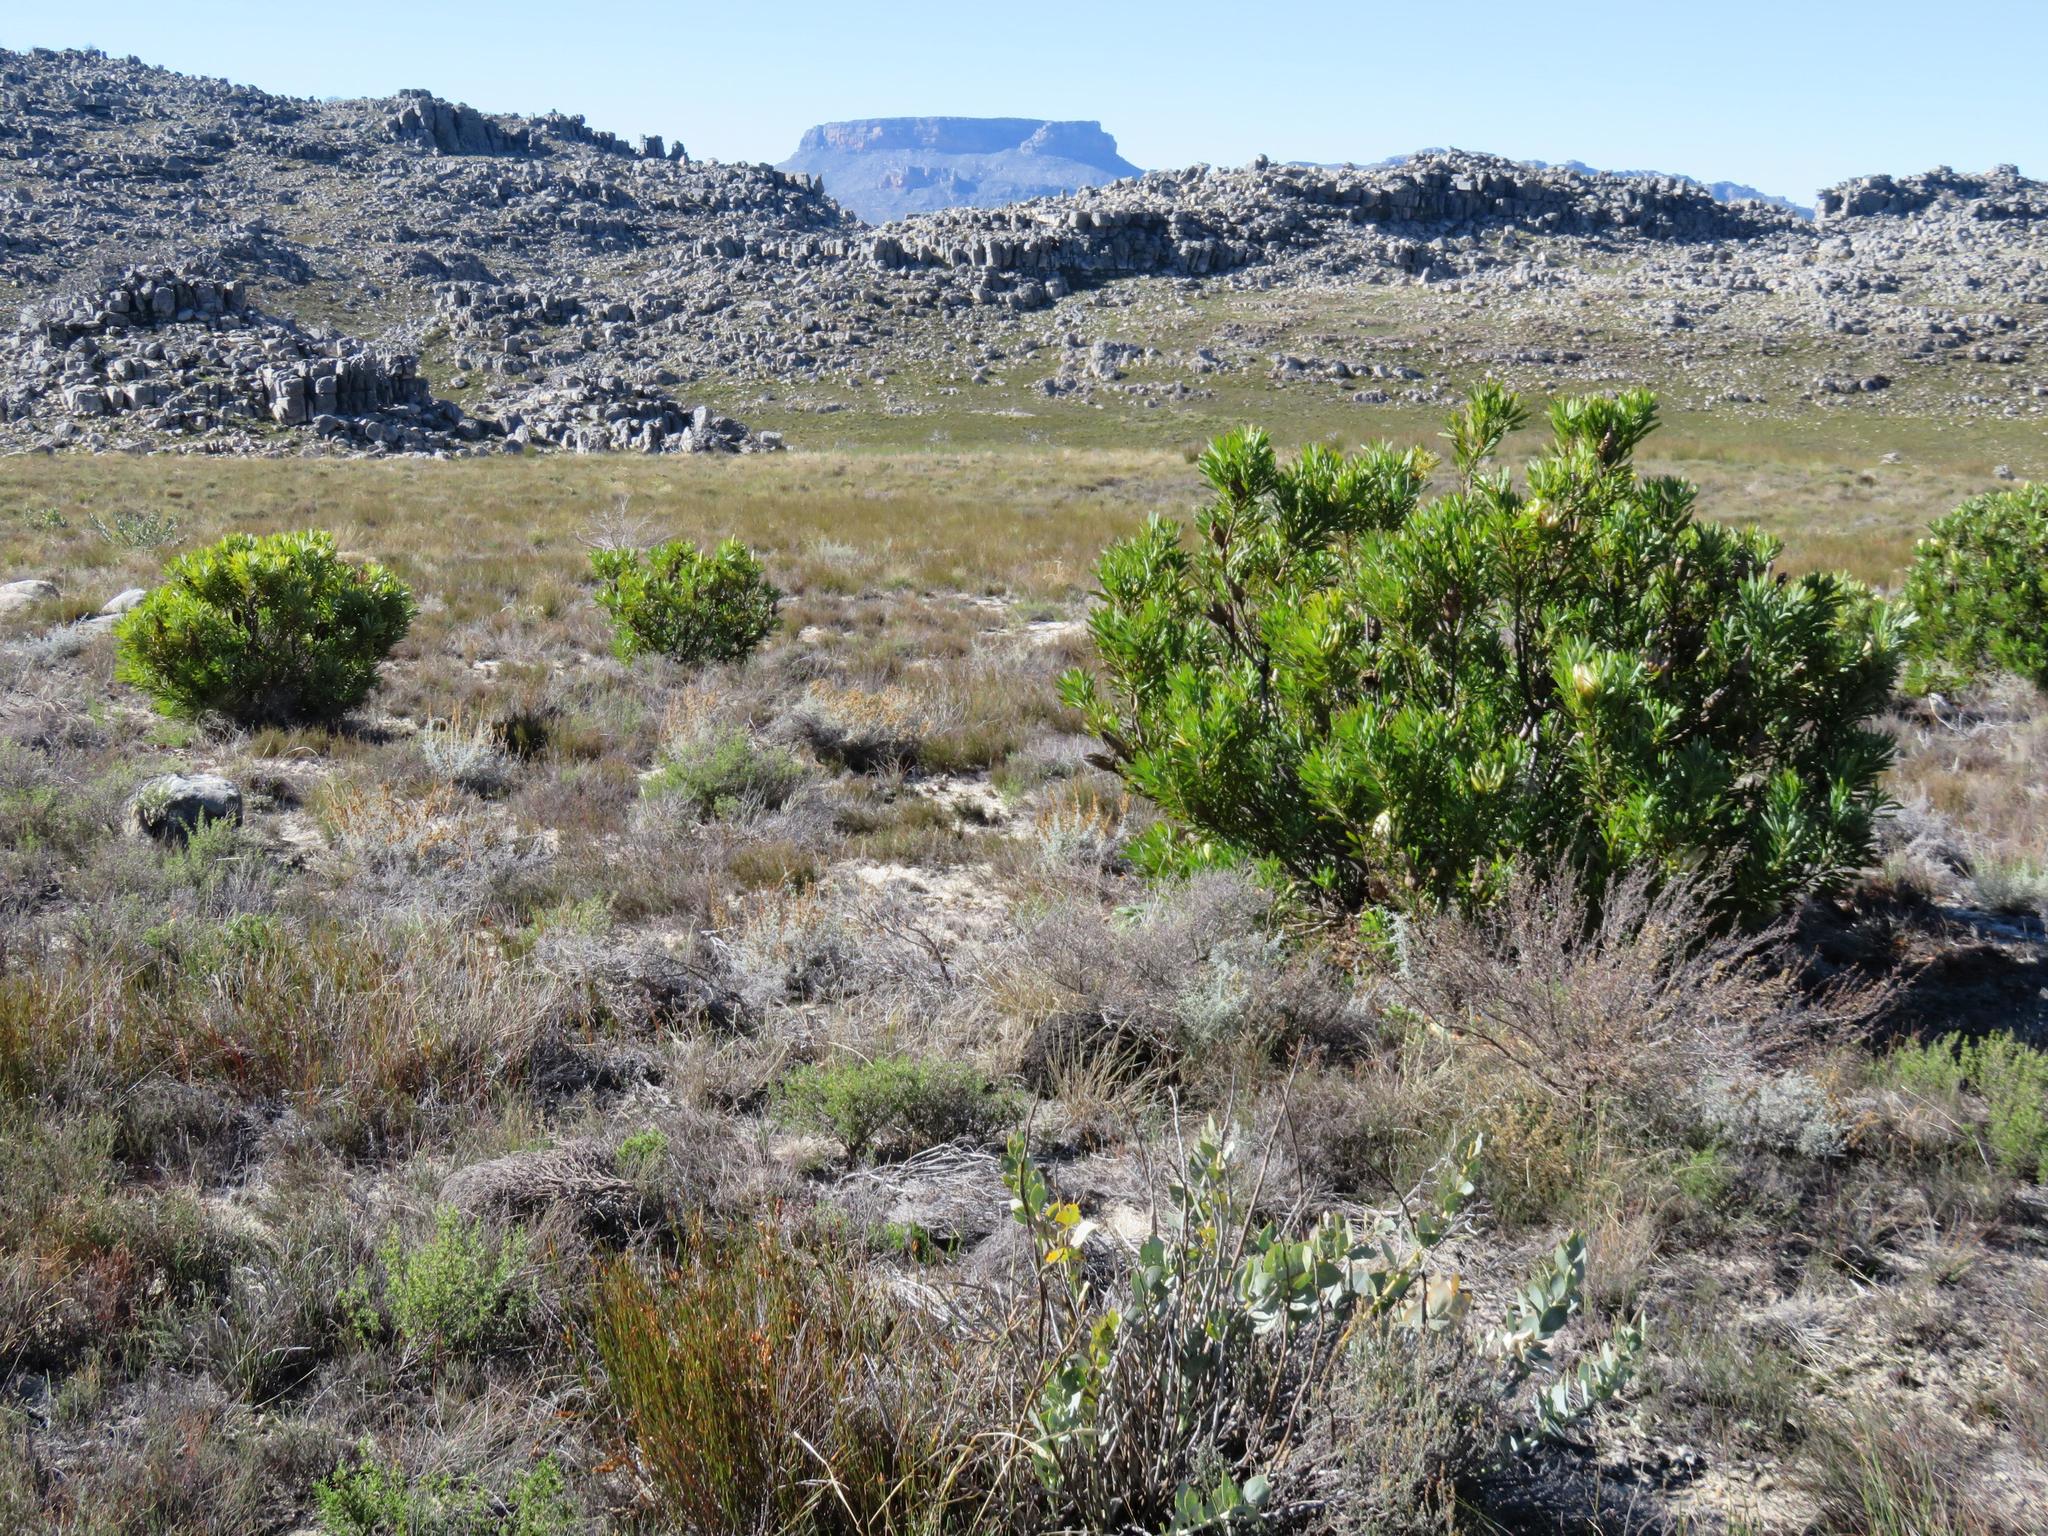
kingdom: Plantae
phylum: Tracheophyta
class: Magnoliopsida
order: Proteales
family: Proteaceae
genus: Protea
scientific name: Protea repens
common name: Sugarbush
